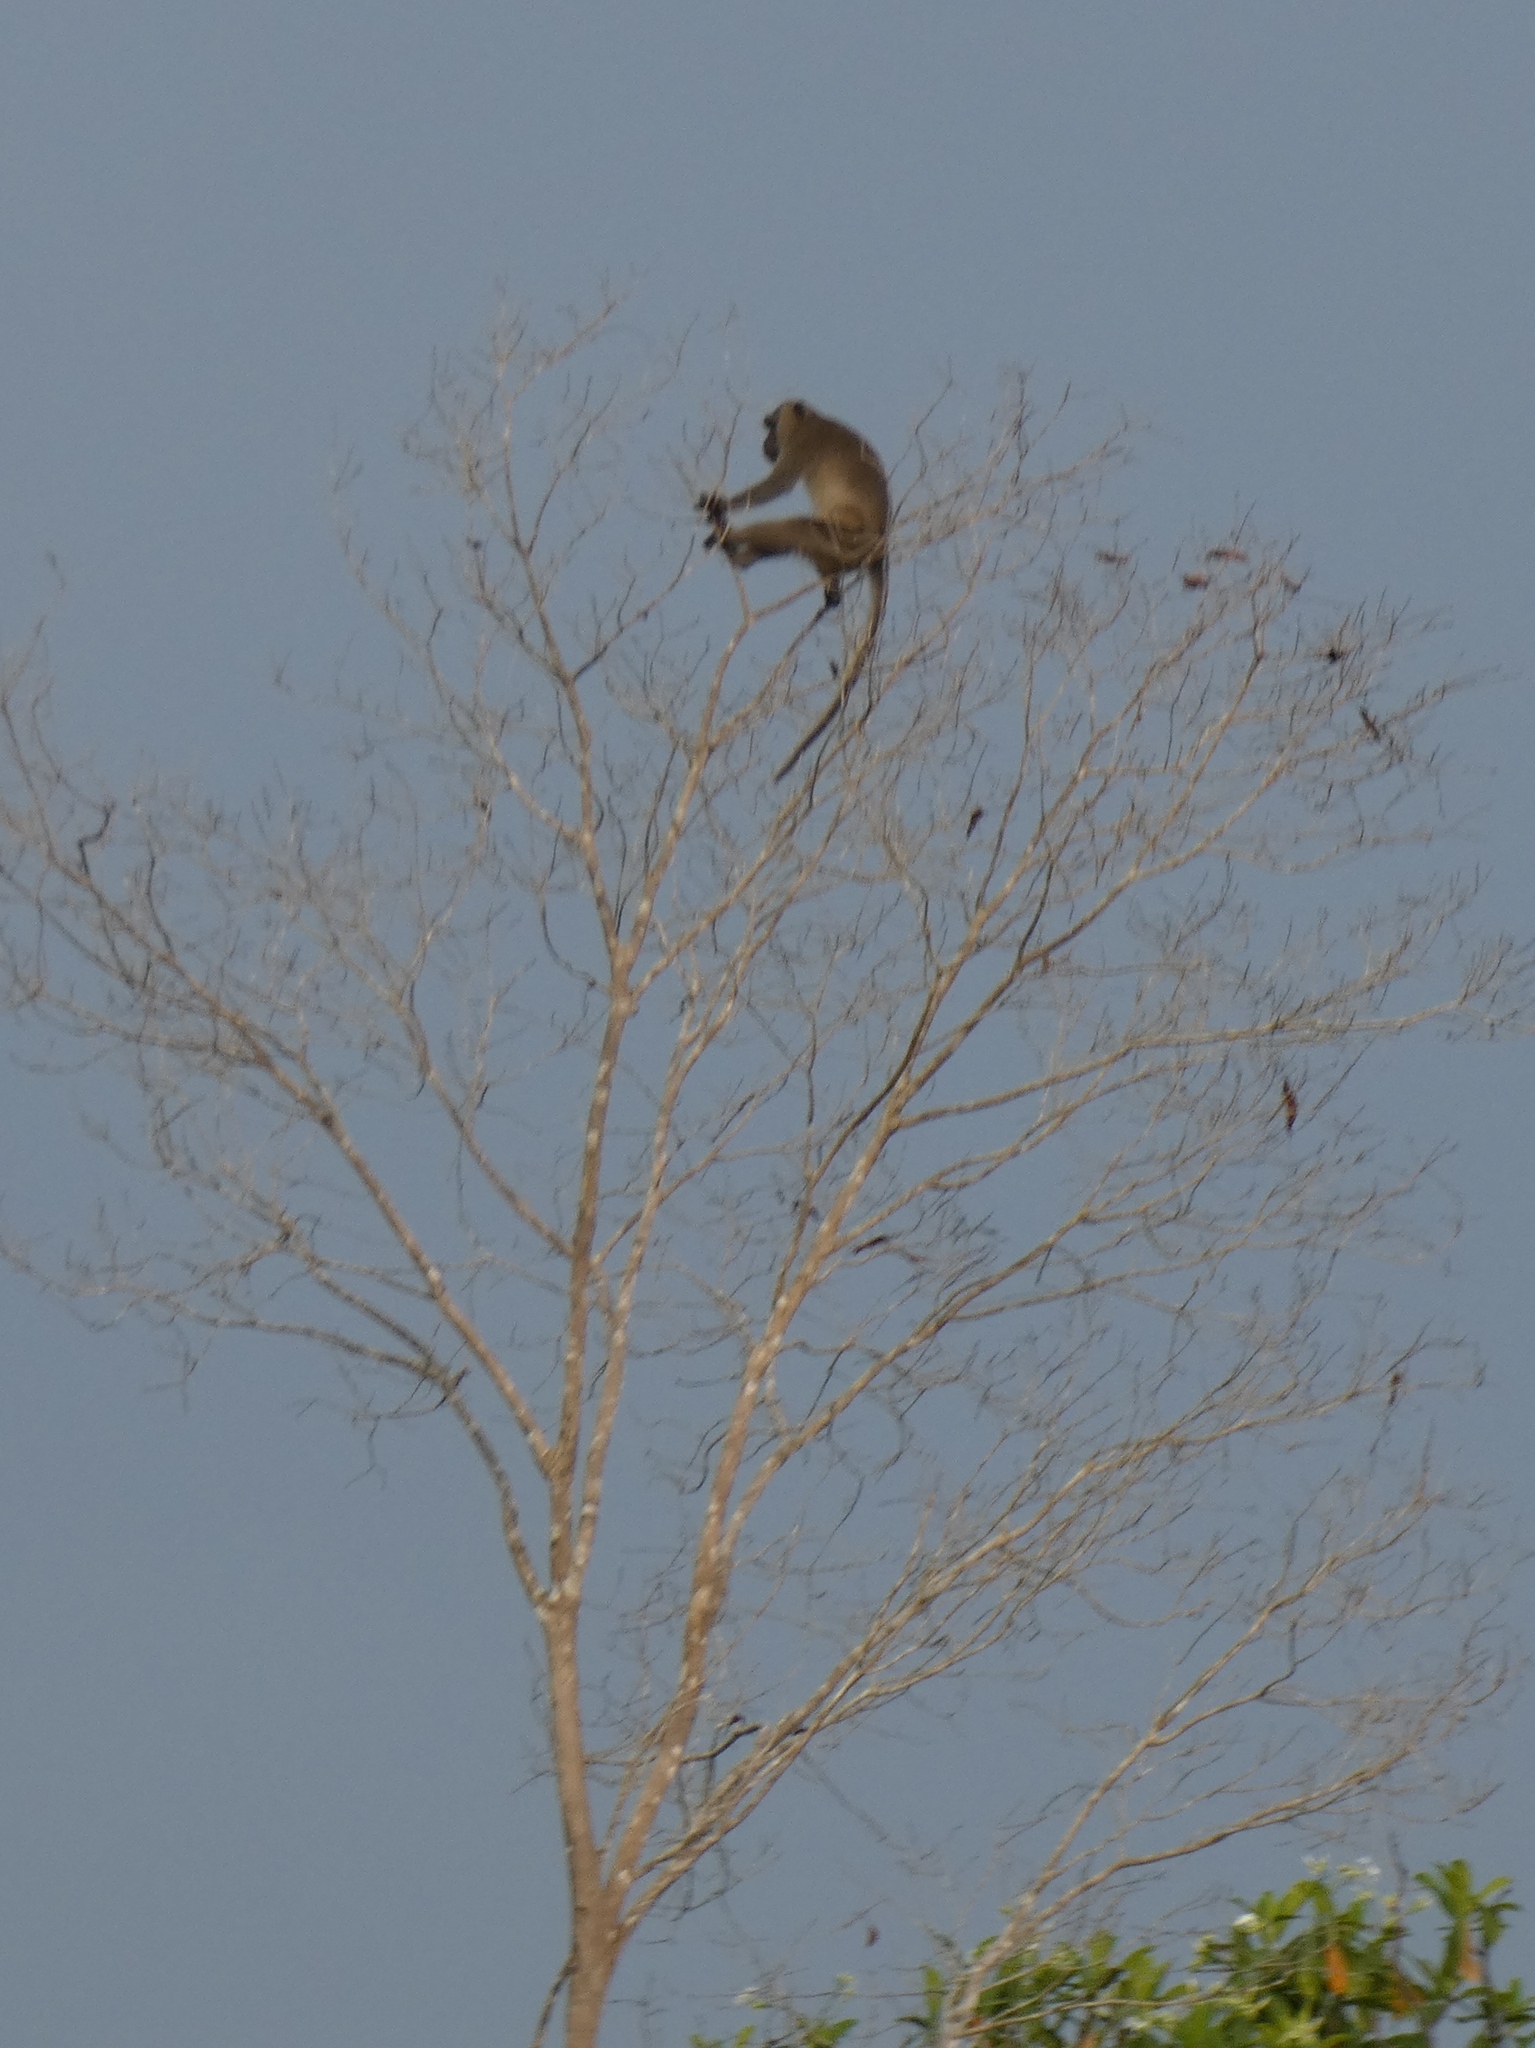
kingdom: Animalia
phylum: Chordata
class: Mammalia
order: Primates
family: Cercopithecidae
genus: Macaca
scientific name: Macaca fascicularis
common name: Crab-eating macaque
